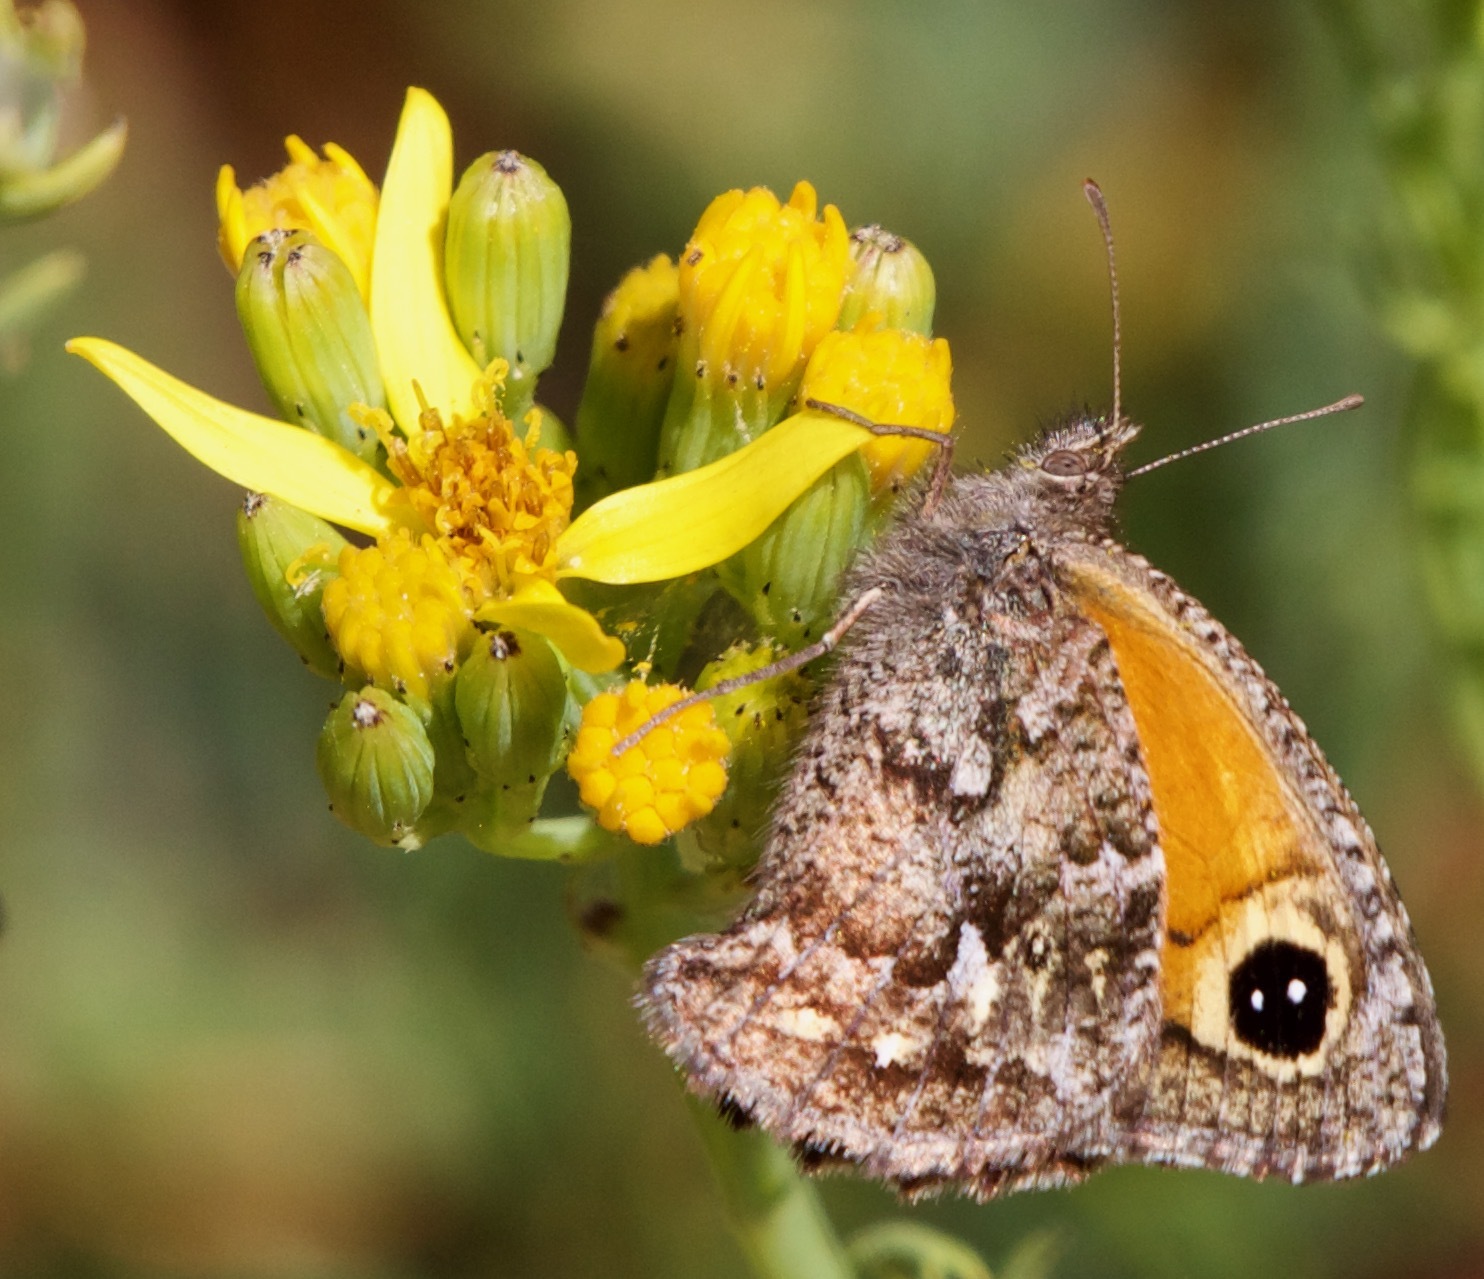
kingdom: Animalia
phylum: Arthropoda
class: Insecta
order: Lepidoptera
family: Nymphalidae
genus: Auca
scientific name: Auca coctei
